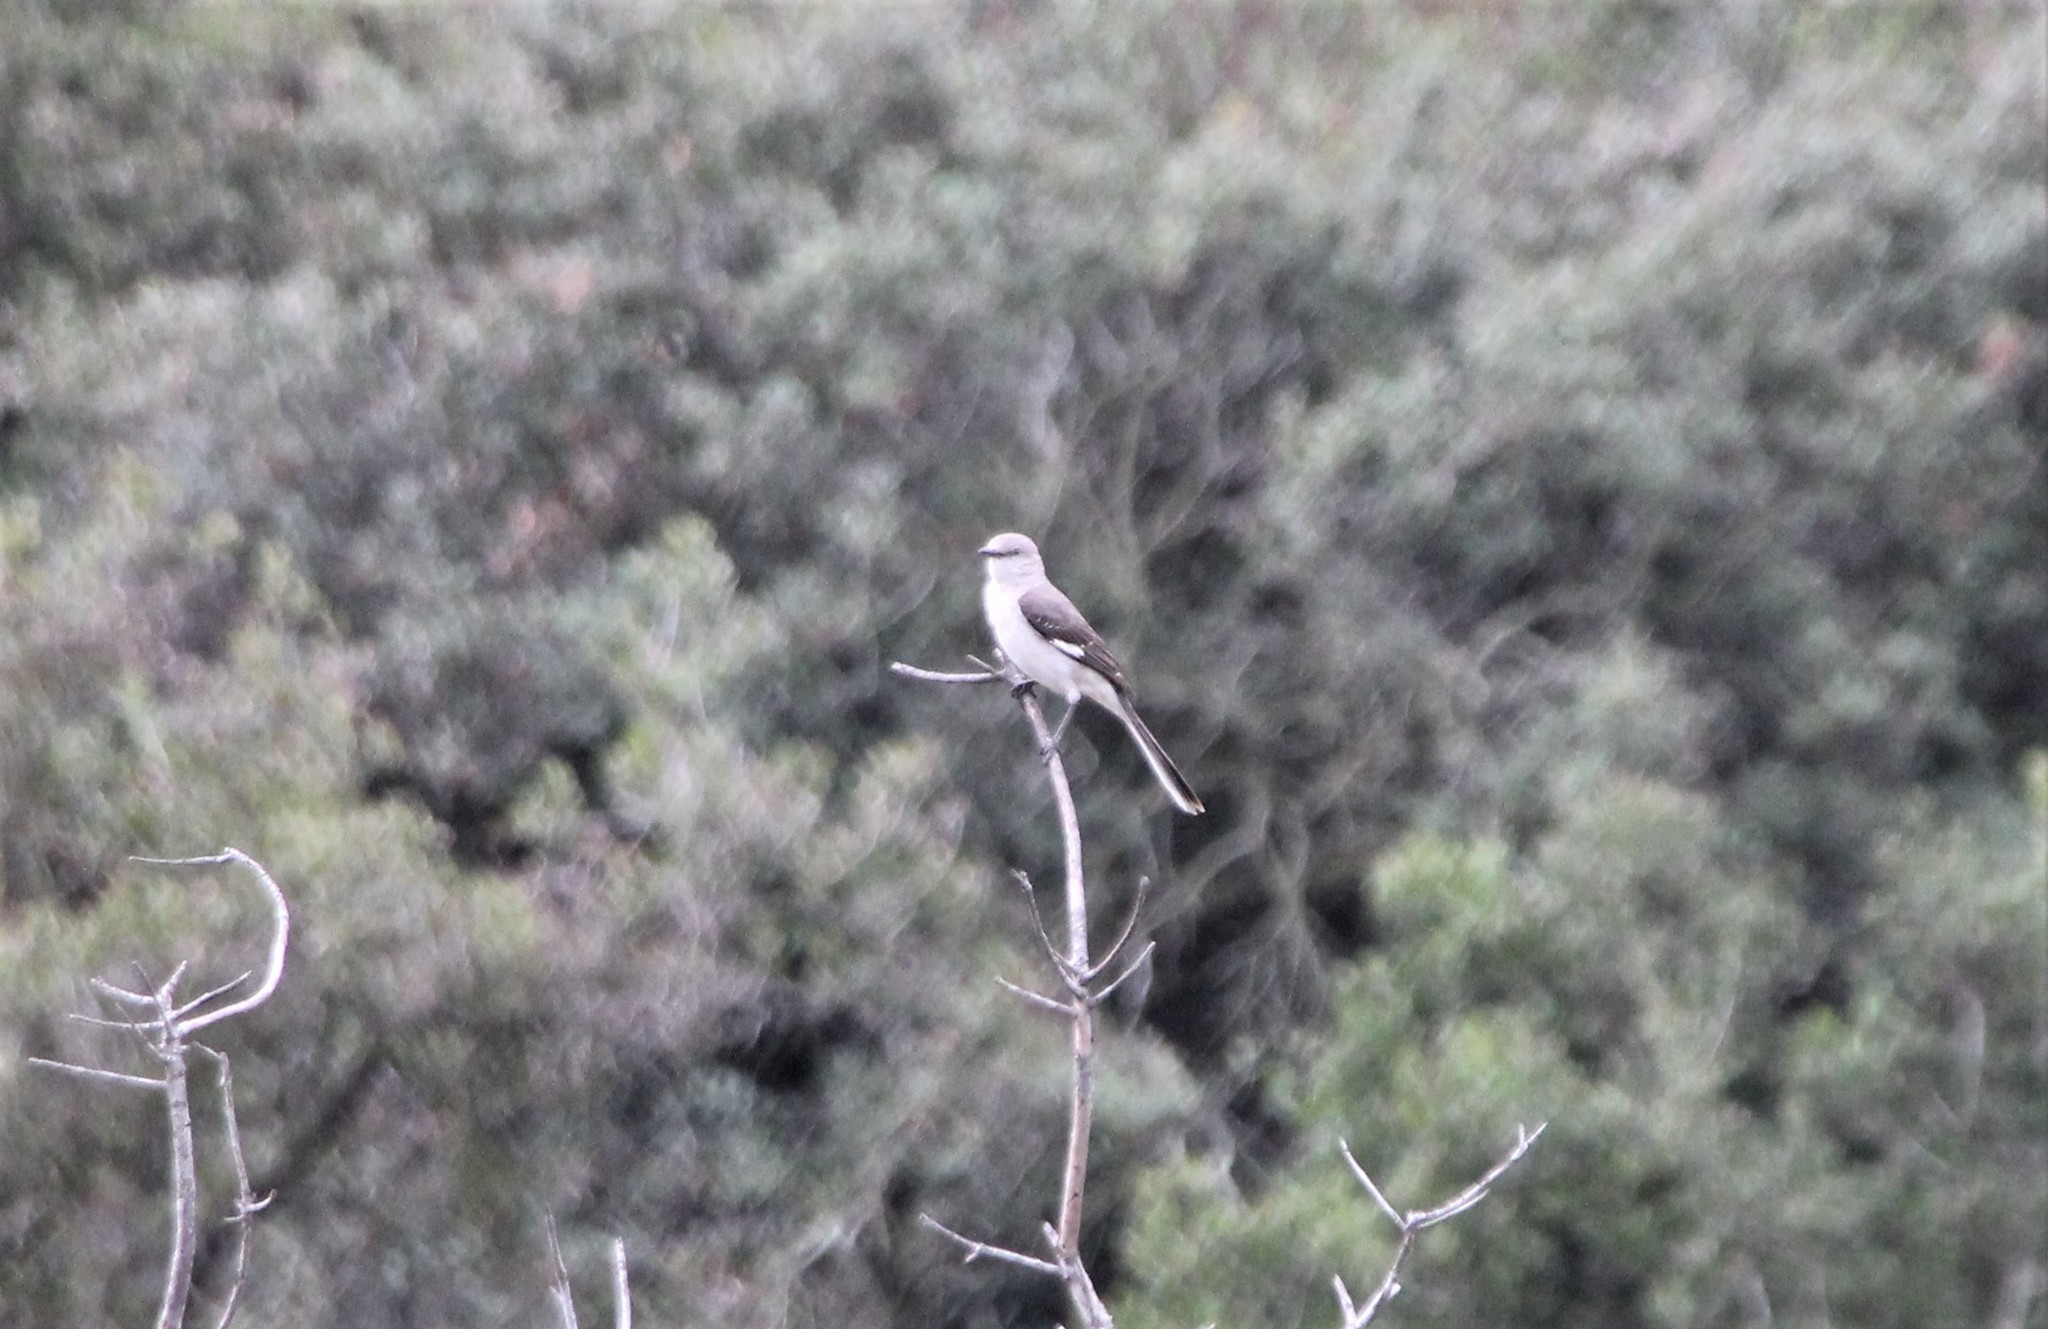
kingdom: Animalia
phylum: Chordata
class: Aves
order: Passeriformes
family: Mimidae
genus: Mimus
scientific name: Mimus polyglottos
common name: Northern mockingbird
